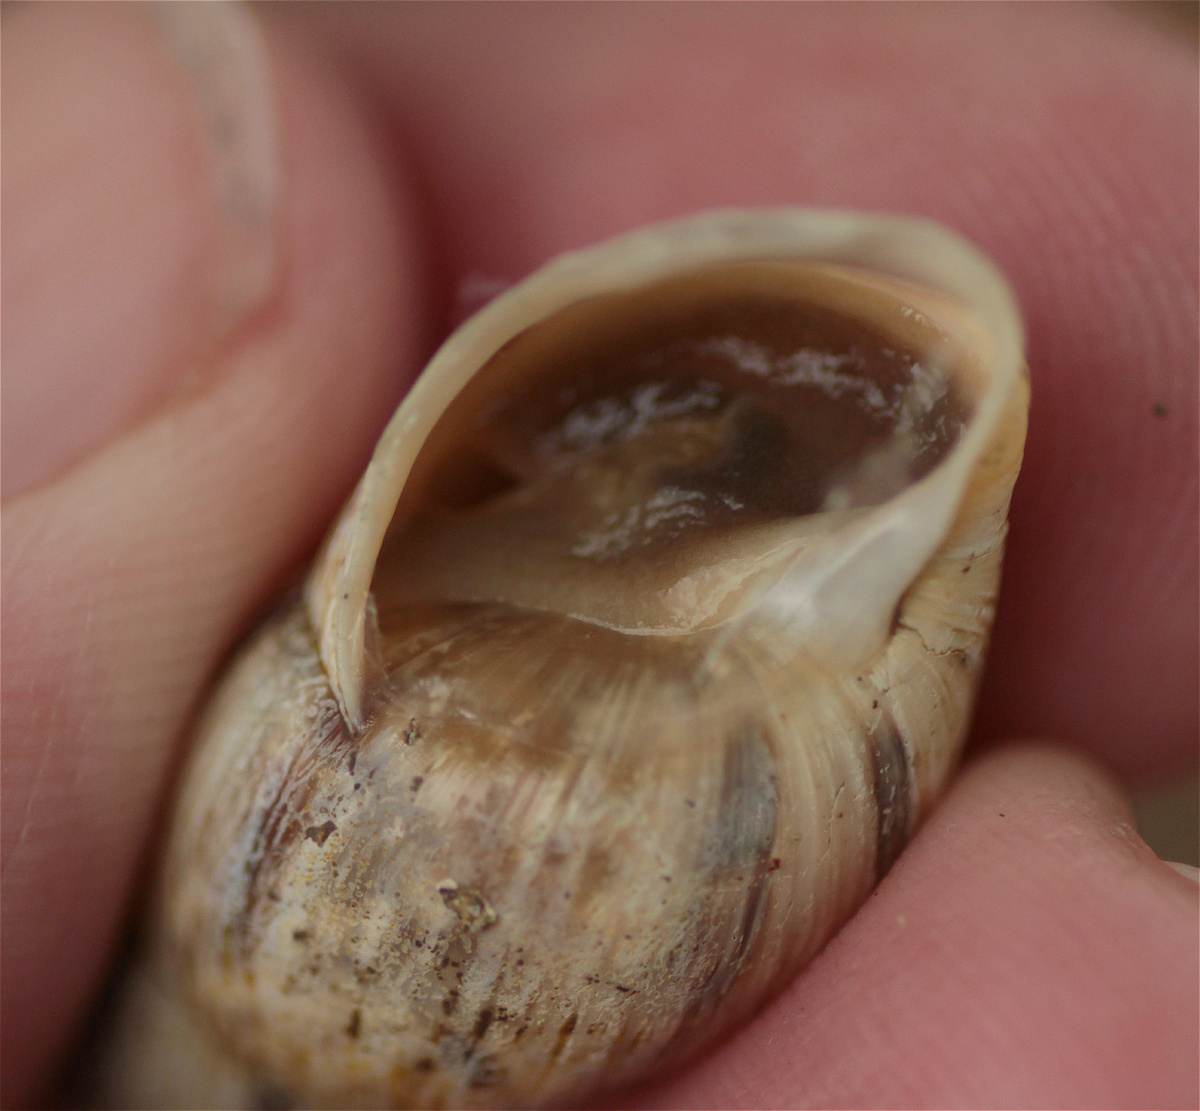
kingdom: Animalia
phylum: Mollusca
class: Gastropoda
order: Stylommatophora
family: Bulimulidae
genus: Drymaeus
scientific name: Drymaeus convexus
